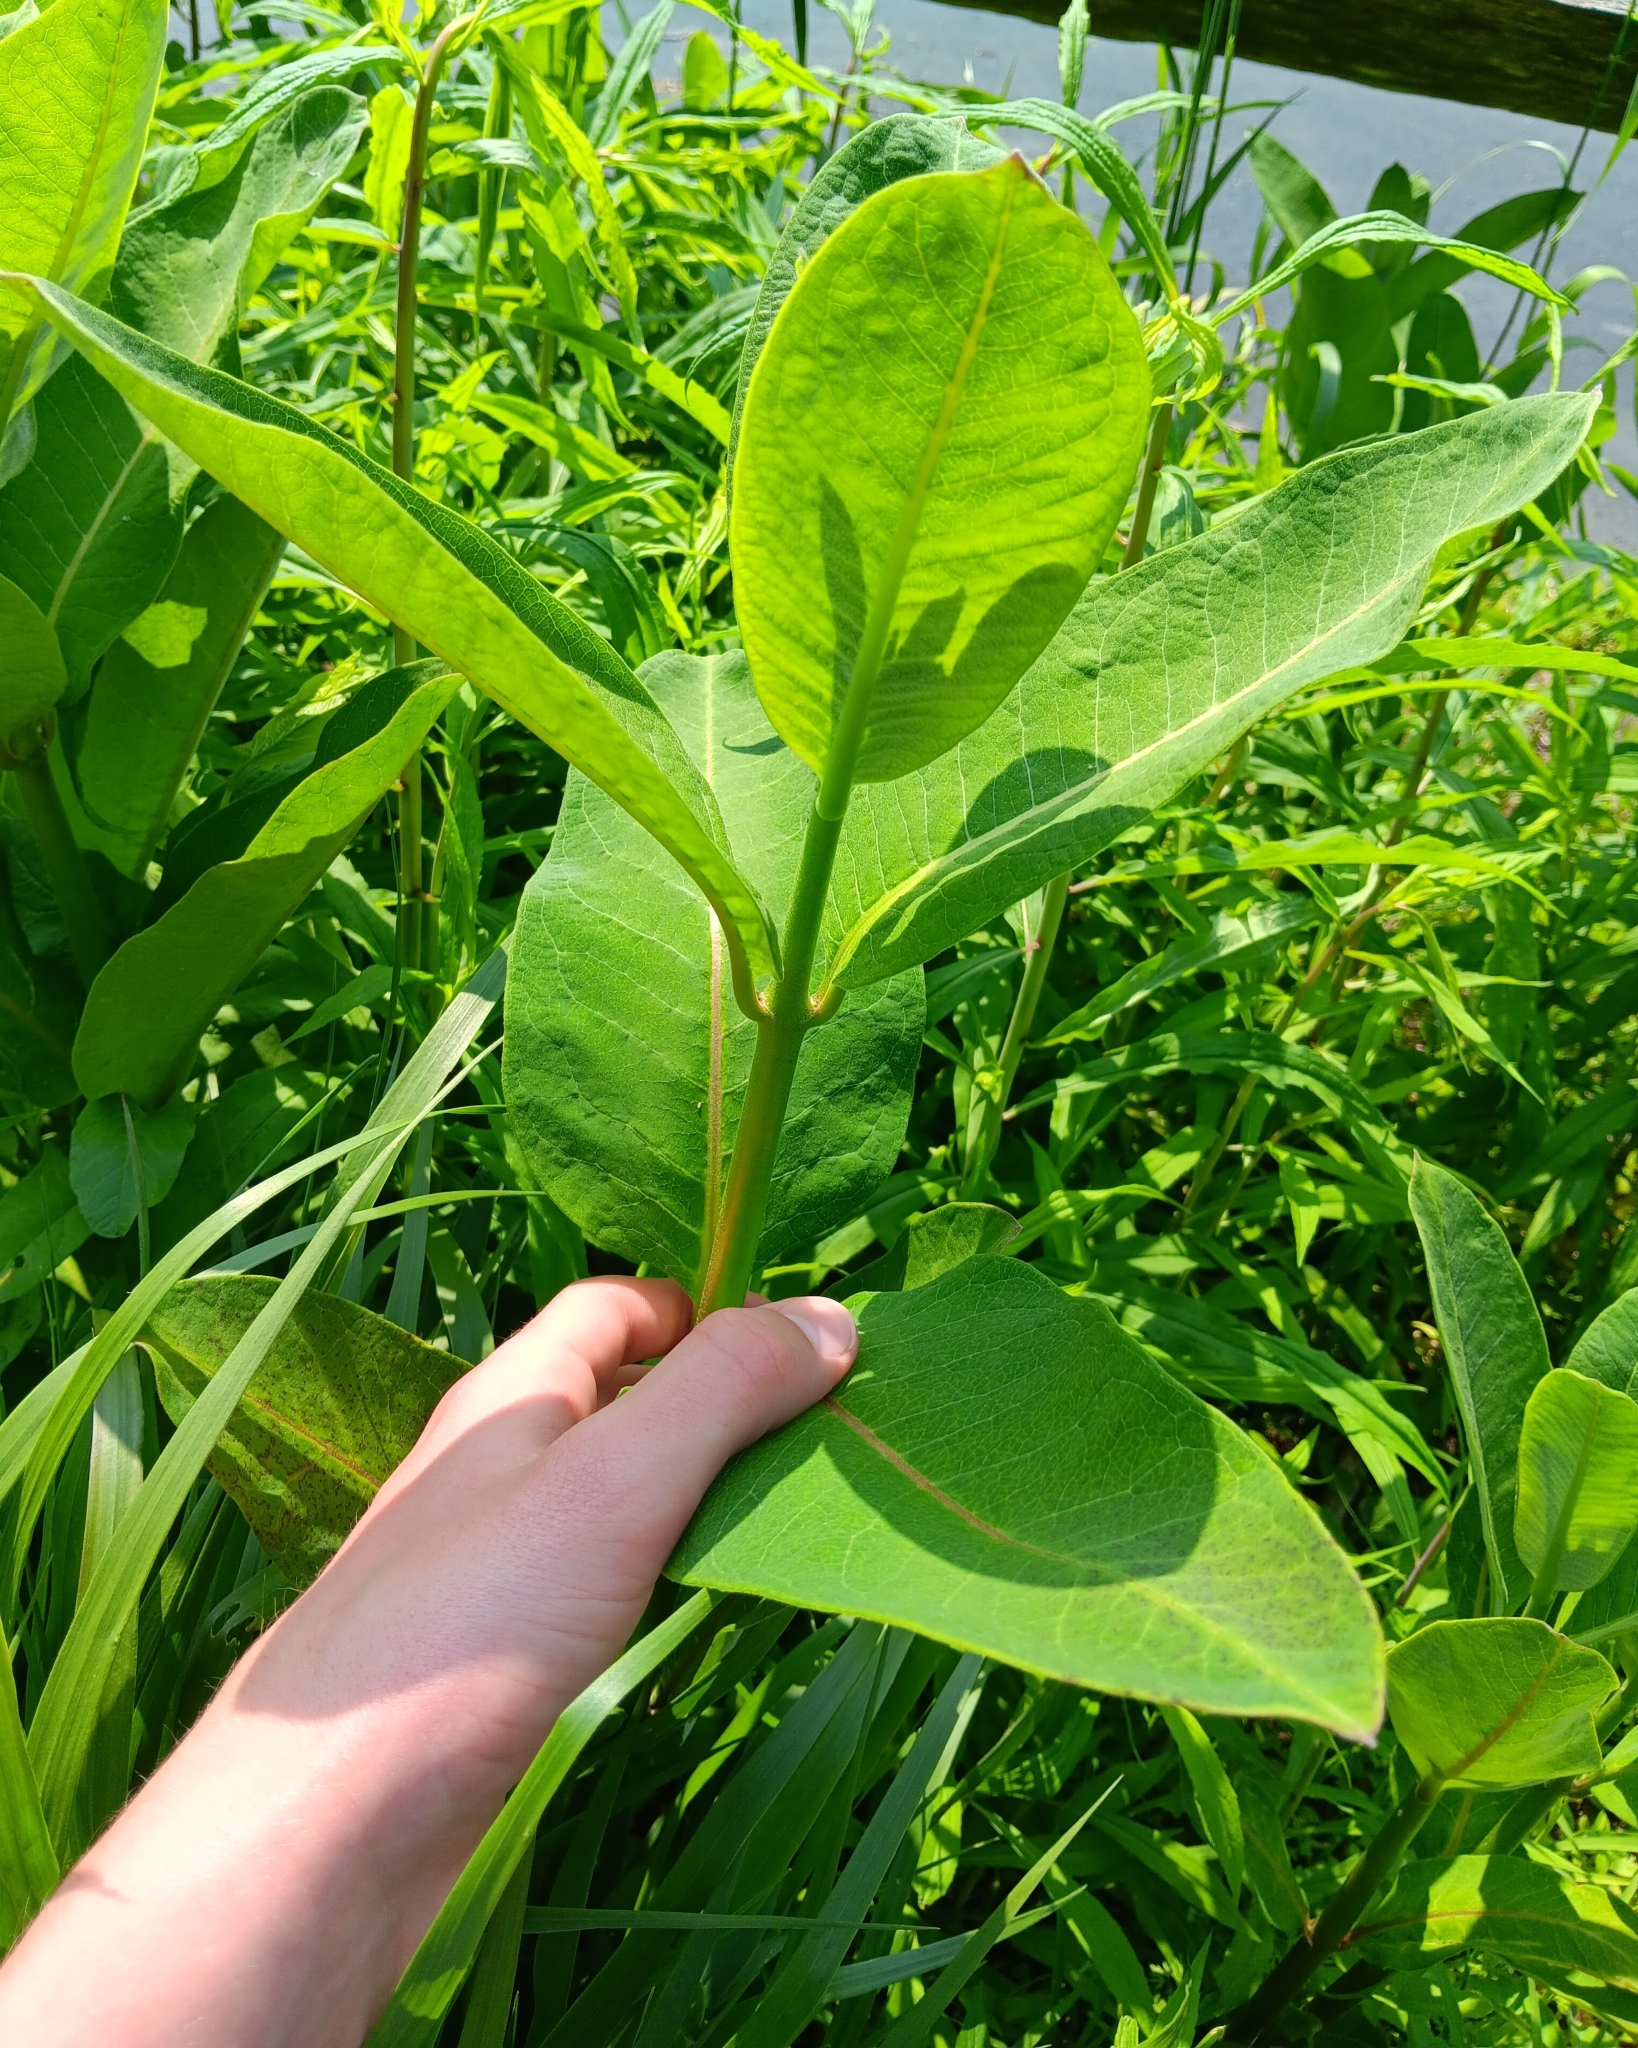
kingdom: Plantae
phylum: Tracheophyta
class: Magnoliopsida
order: Gentianales
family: Apocynaceae
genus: Asclepias
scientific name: Asclepias syriaca
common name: Common milkweed
